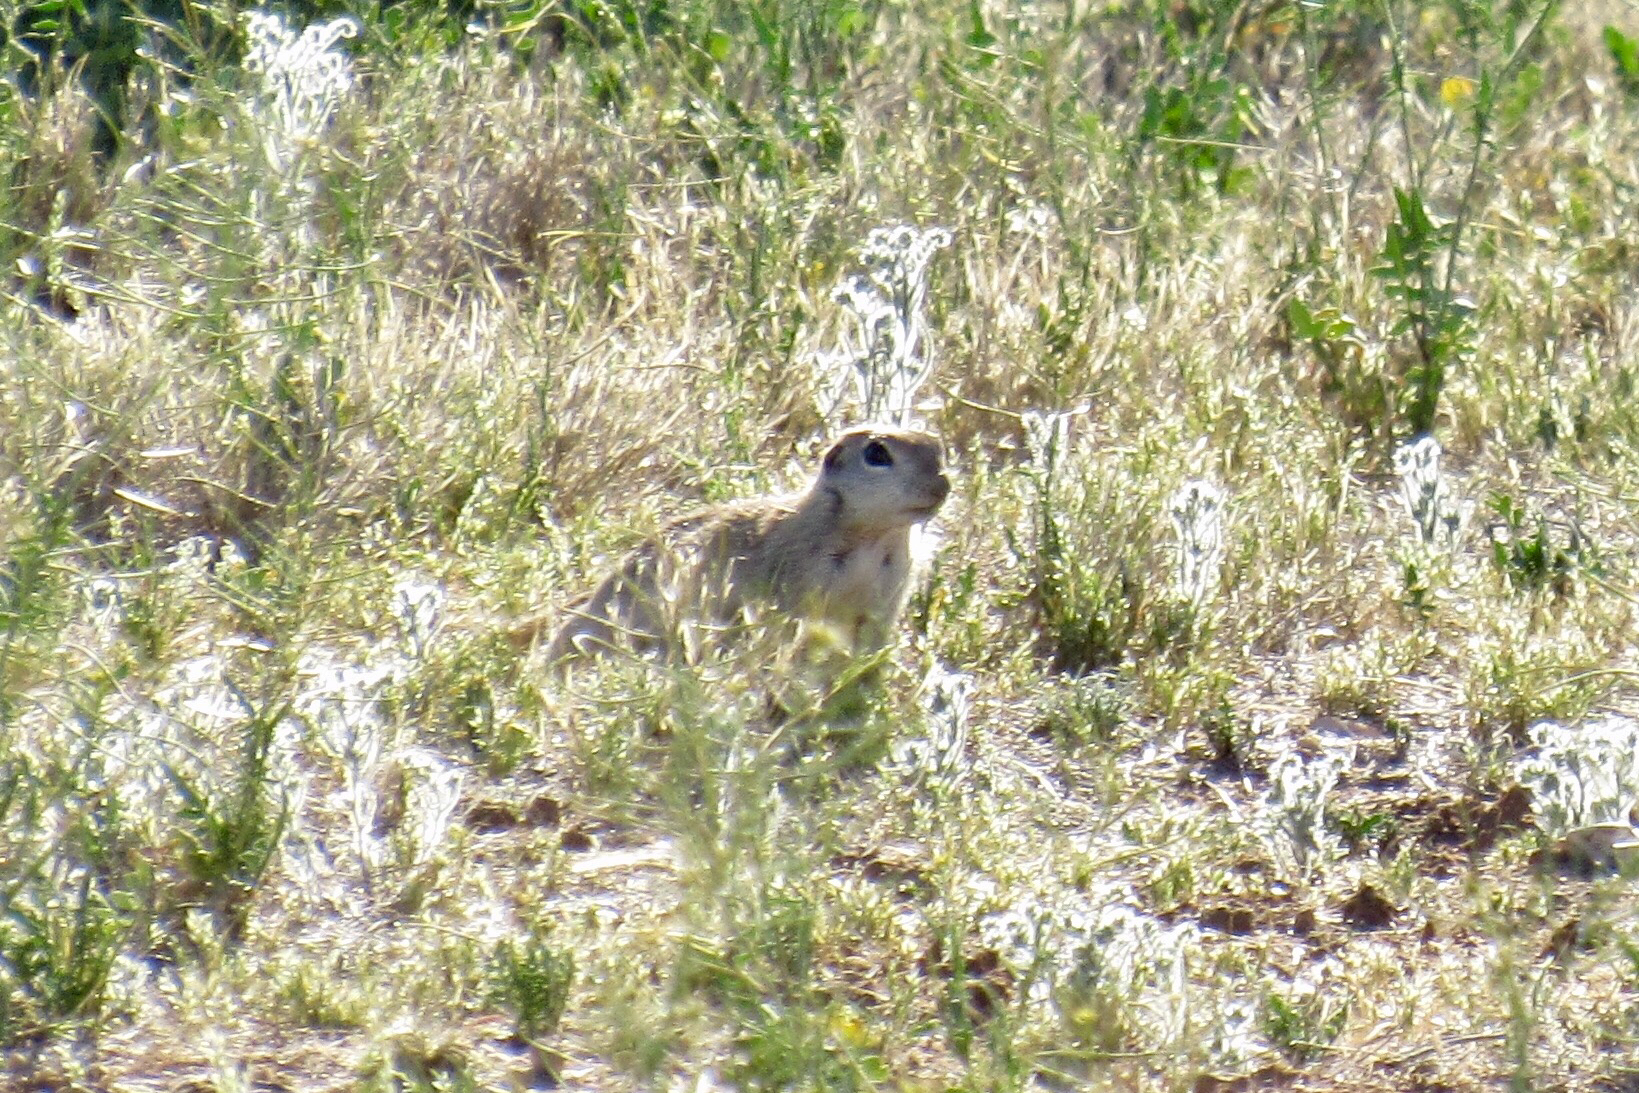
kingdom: Animalia
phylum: Chordata
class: Mammalia
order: Rodentia
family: Sciuridae
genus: Xerospermophilus
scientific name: Xerospermophilus tereticaudus
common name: Round-tailed ground squirrel
